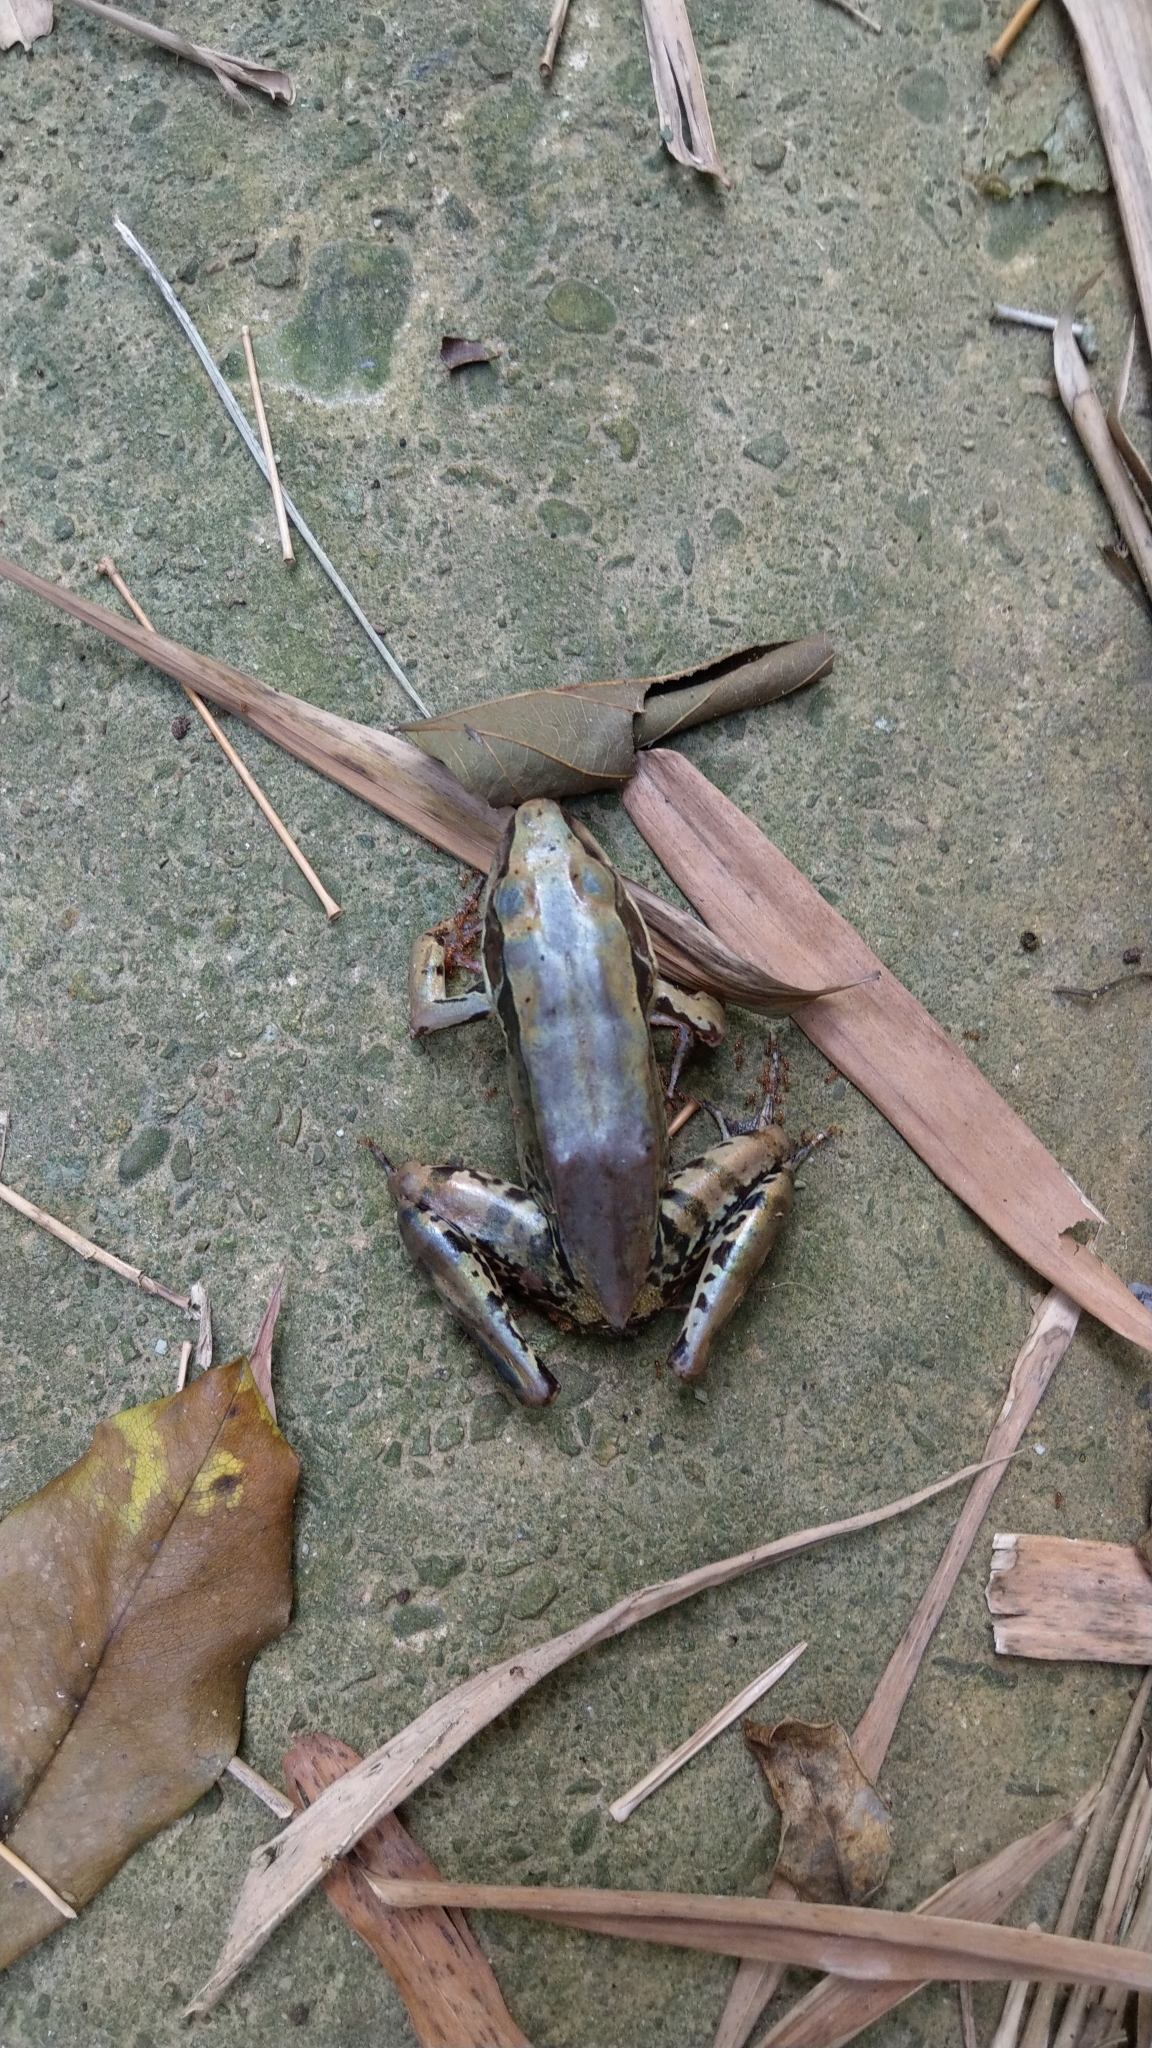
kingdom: Animalia
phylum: Chordata
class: Amphibia
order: Anura
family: Ranidae
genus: Sylvirana
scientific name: Sylvirana guentheri
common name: Guenther's amoy frog
